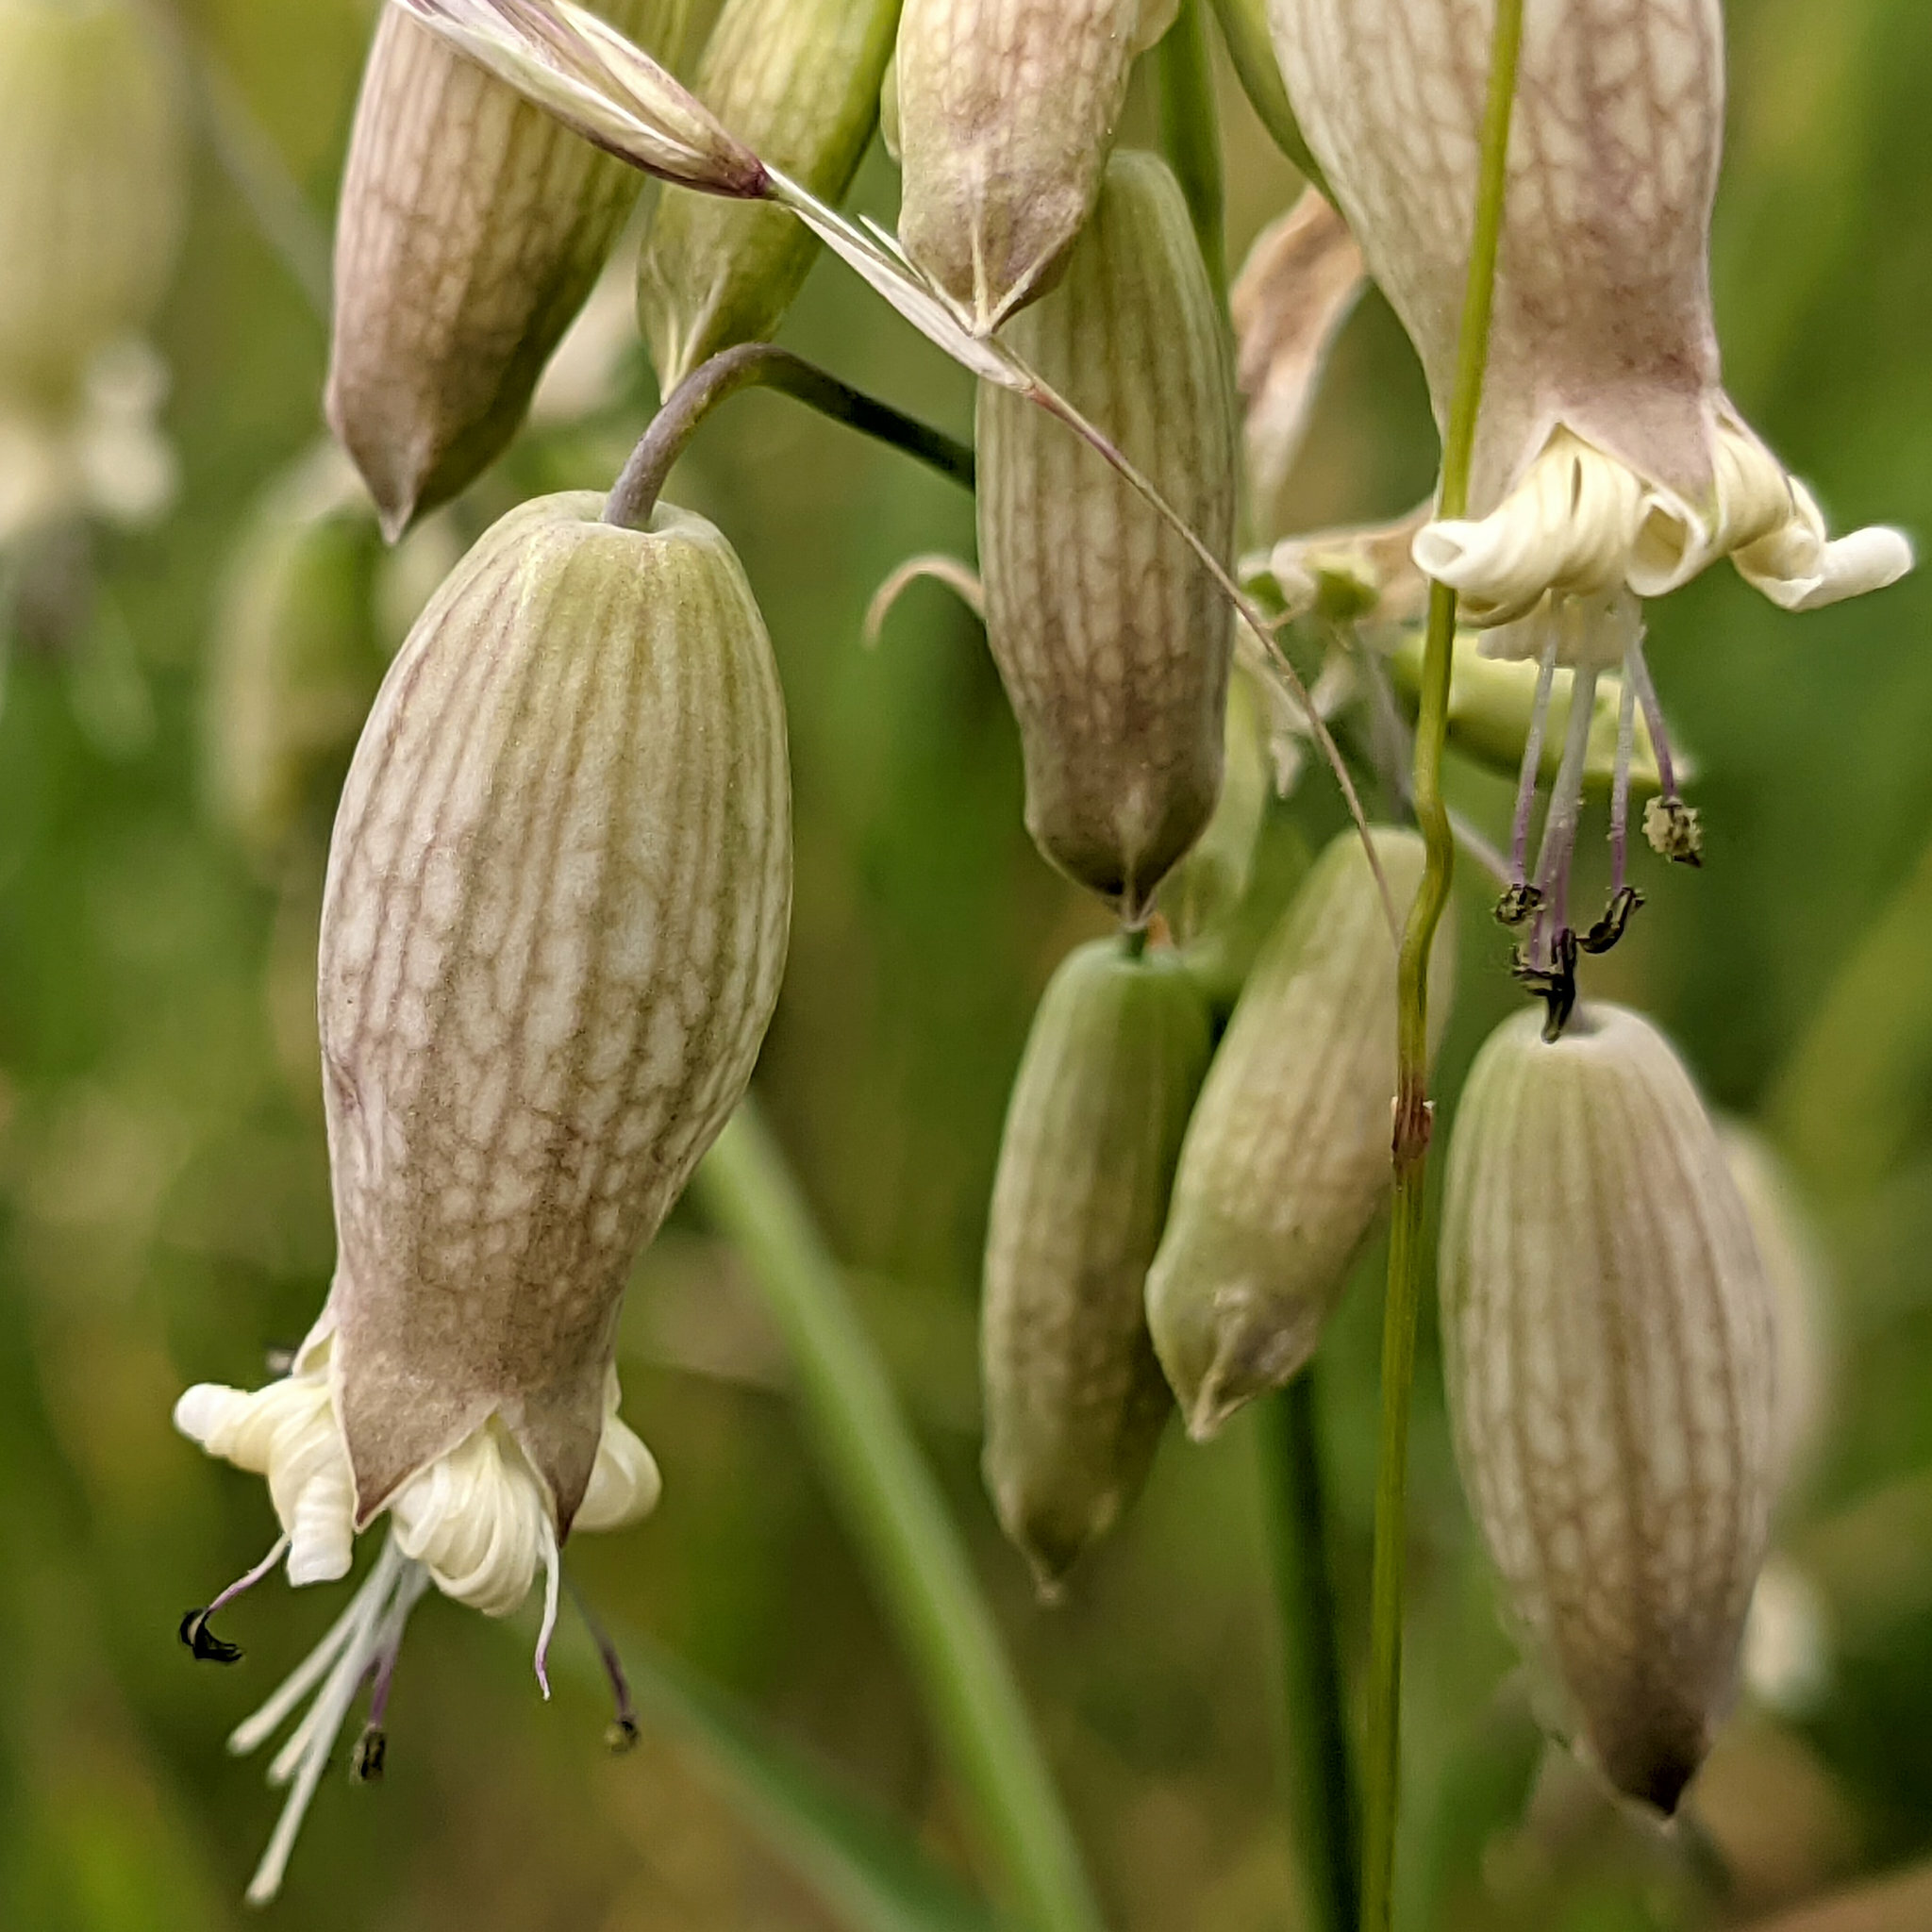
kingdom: Plantae
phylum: Tracheophyta
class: Magnoliopsida
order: Caryophyllales
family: Caryophyllaceae
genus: Silene
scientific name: Silene vulgaris
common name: Bladder campion
